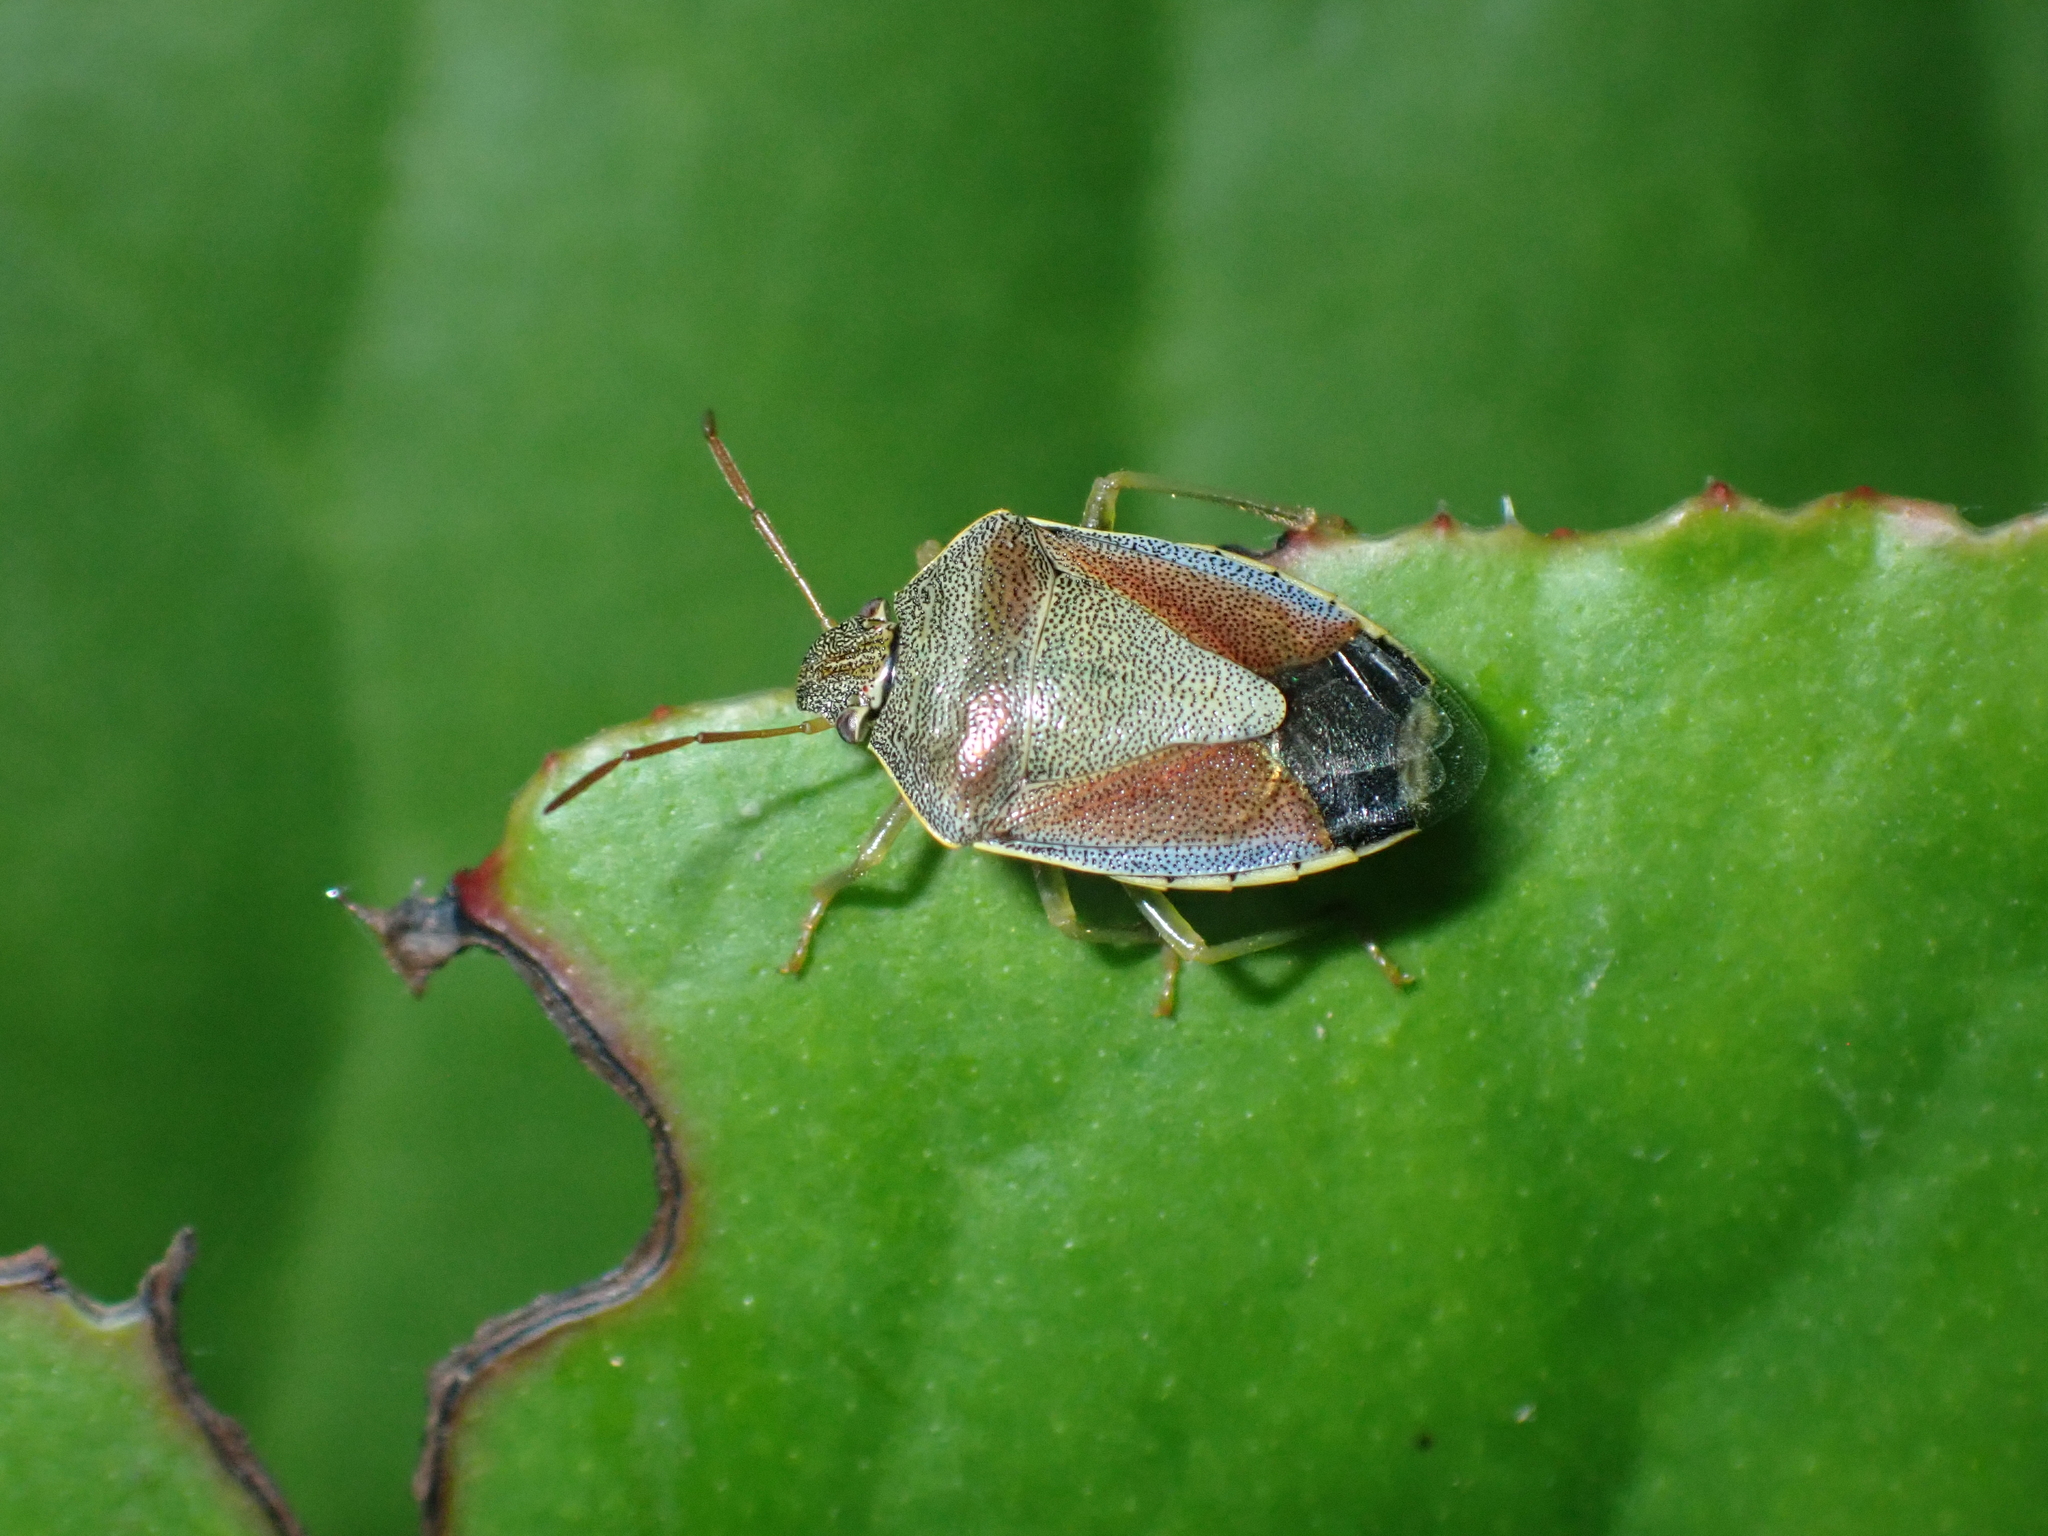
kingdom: Animalia
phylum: Arthropoda
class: Insecta
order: Hemiptera
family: Pentatomidae
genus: Piezodorus
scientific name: Piezodorus lituratus
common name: Stink bug
